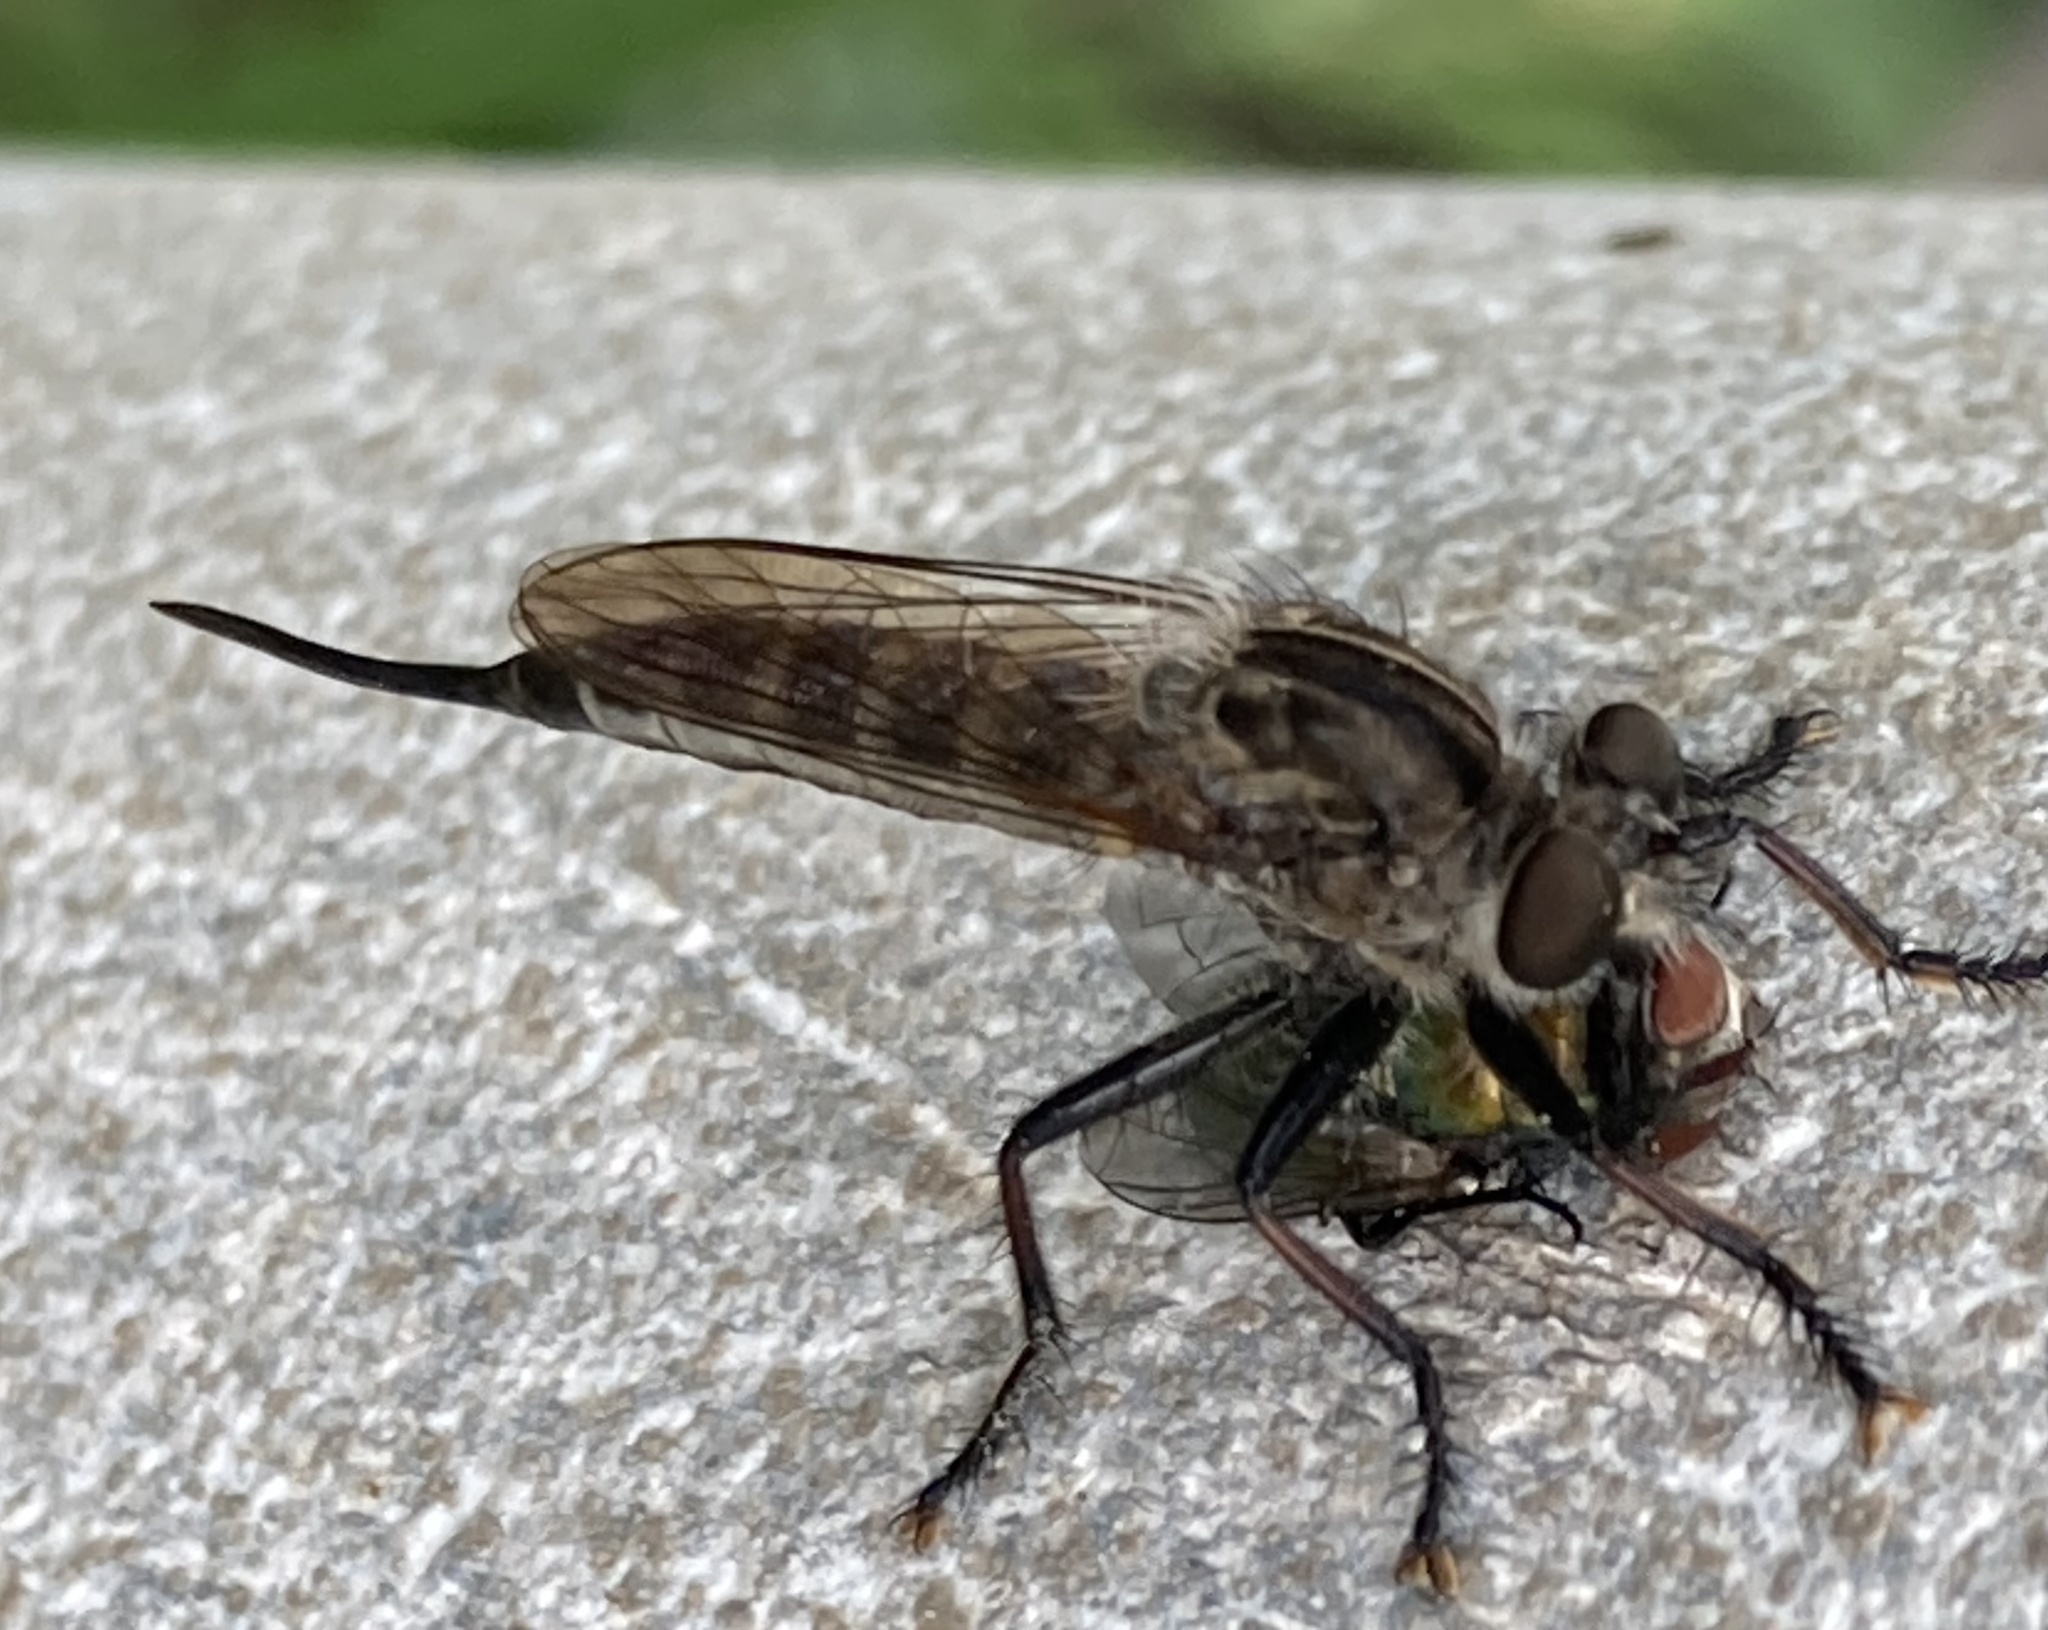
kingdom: Animalia
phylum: Arthropoda
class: Insecta
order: Diptera
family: Asilidae
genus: Efferia
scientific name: Efferia aestuans
